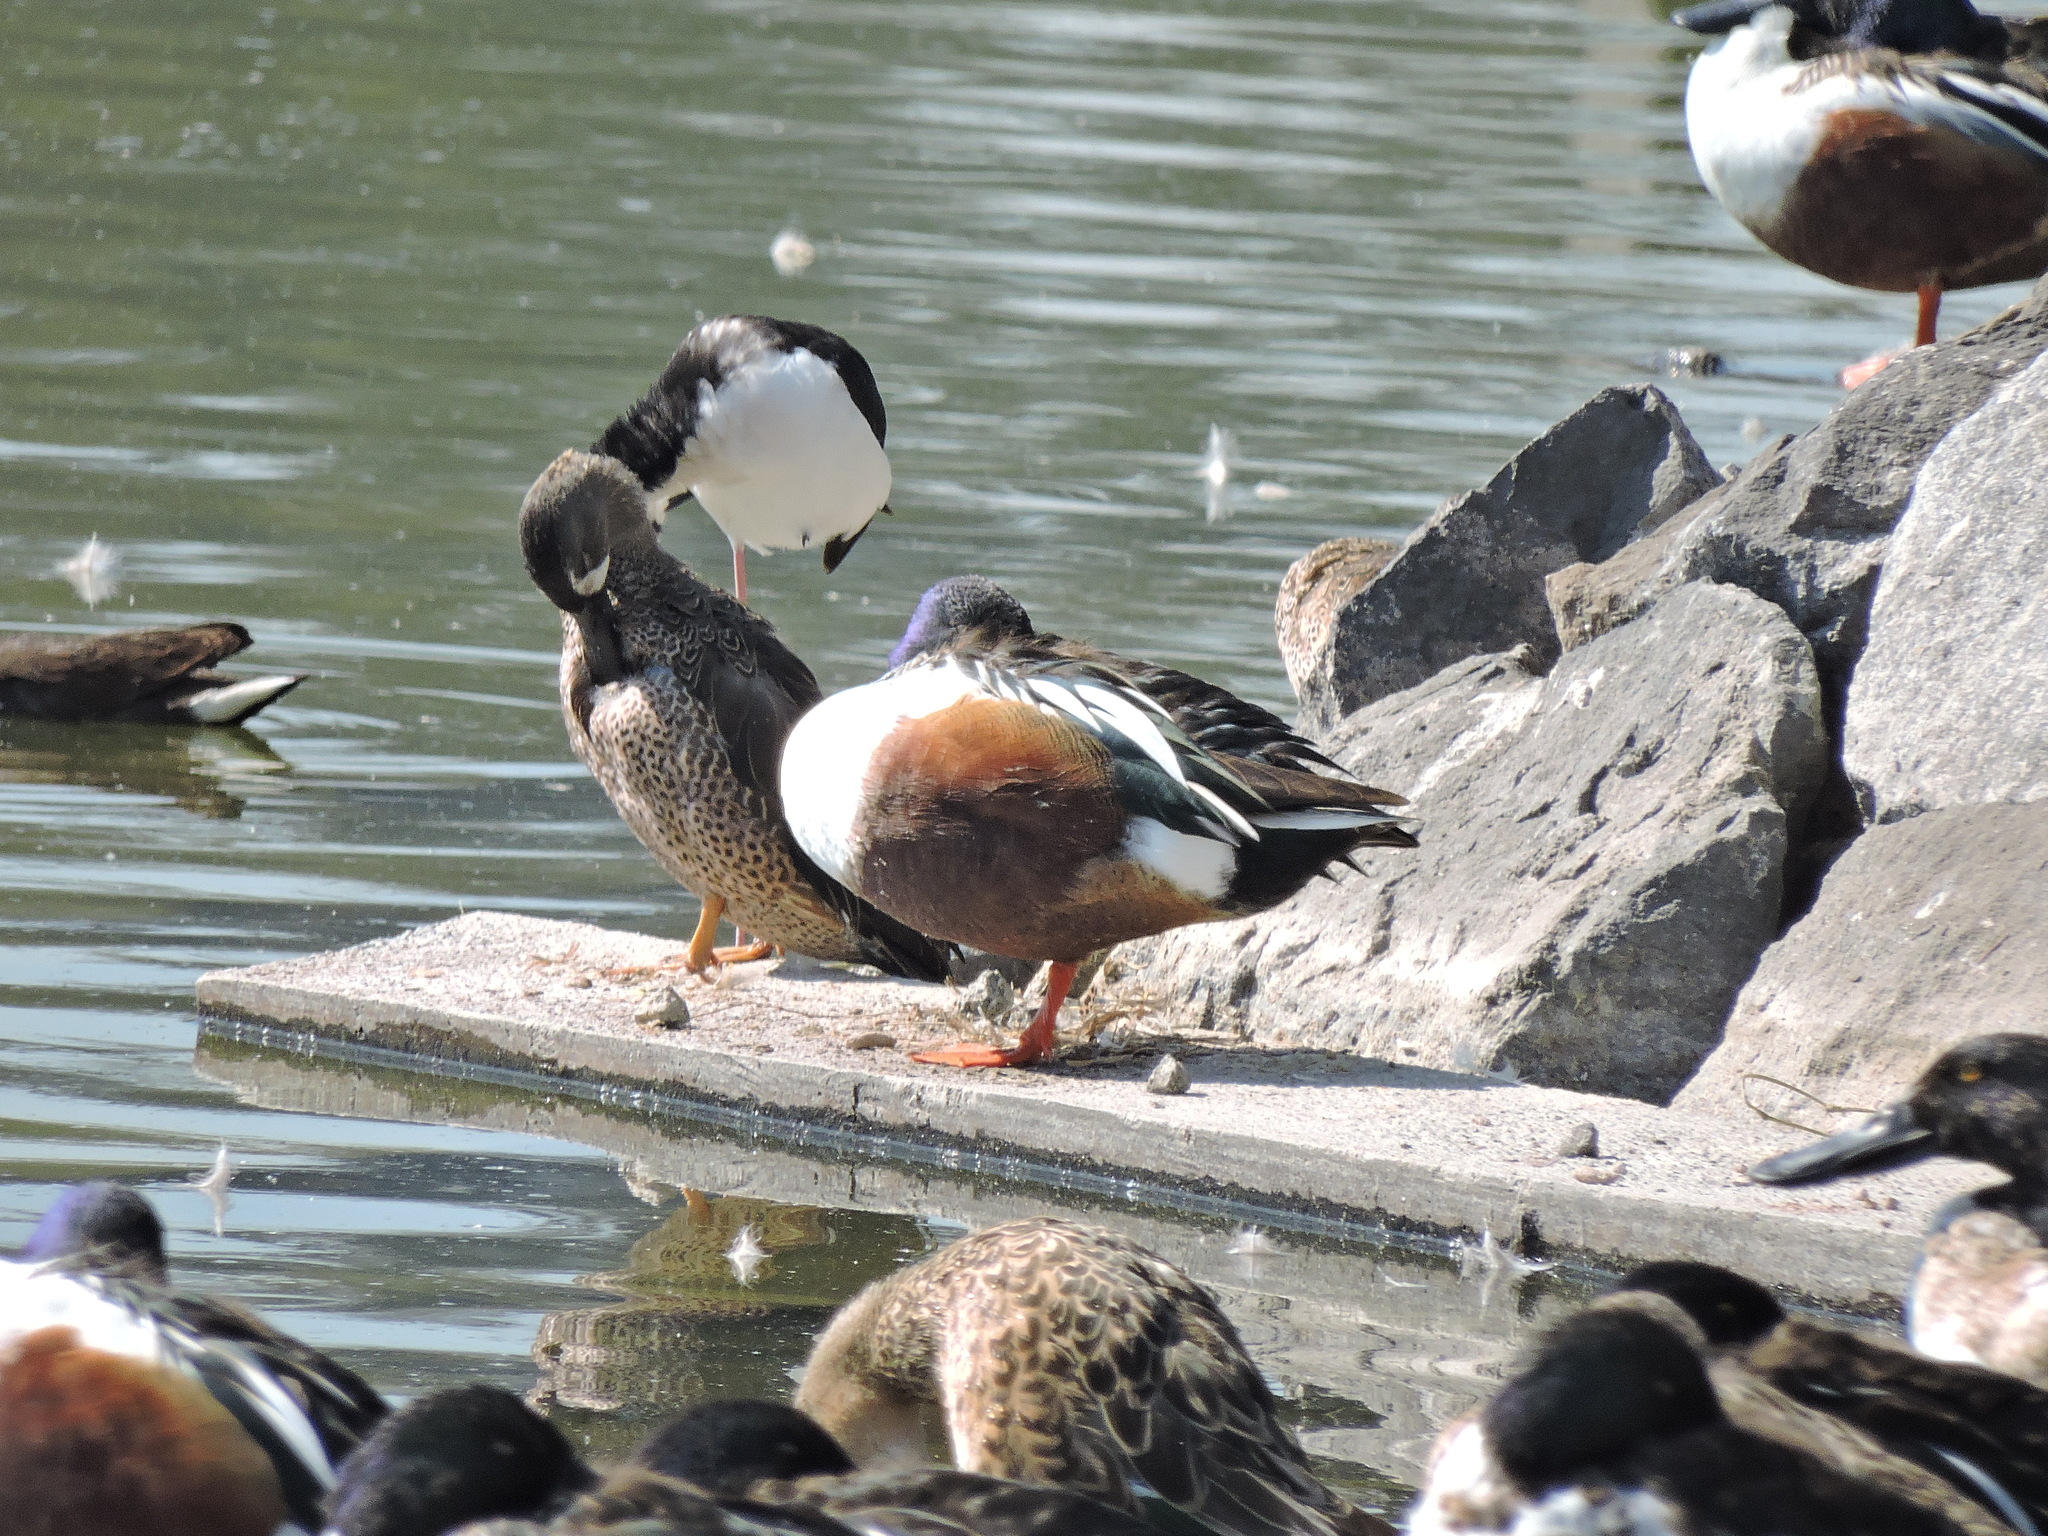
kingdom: Animalia
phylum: Chordata
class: Aves
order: Anseriformes
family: Anatidae
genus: Spatula
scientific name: Spatula discors
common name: Blue-winged teal
